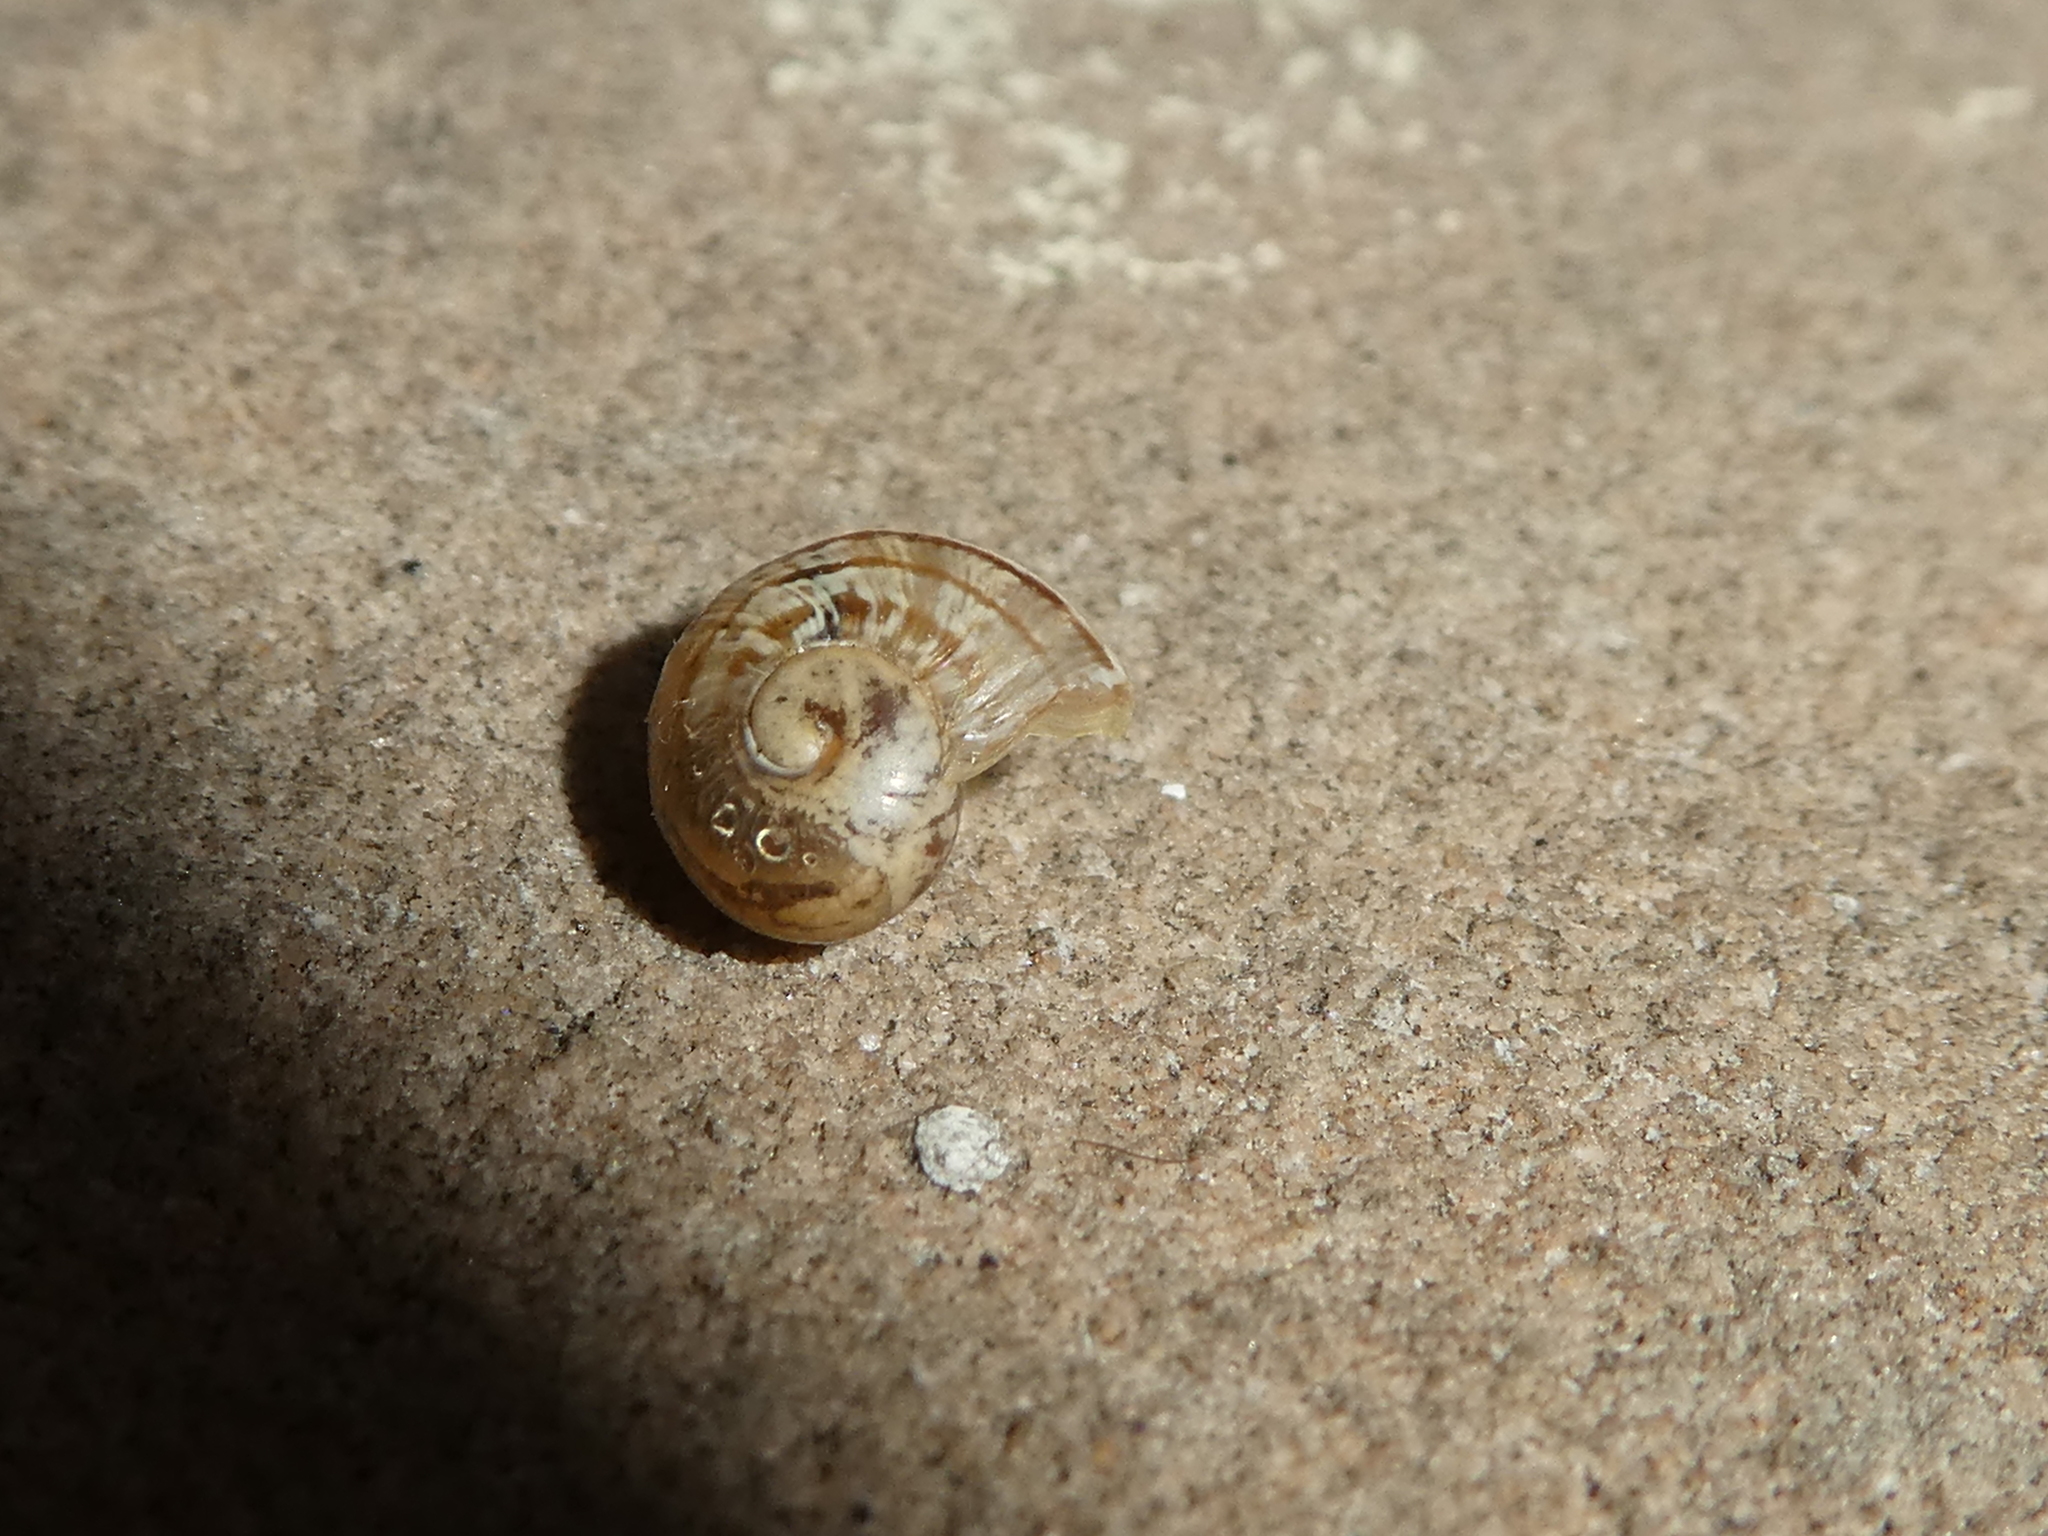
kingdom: Animalia
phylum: Mollusca
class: Gastropoda
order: Stylommatophora
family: Helicidae
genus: Cornu
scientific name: Cornu aspersum
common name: Brown garden snail
